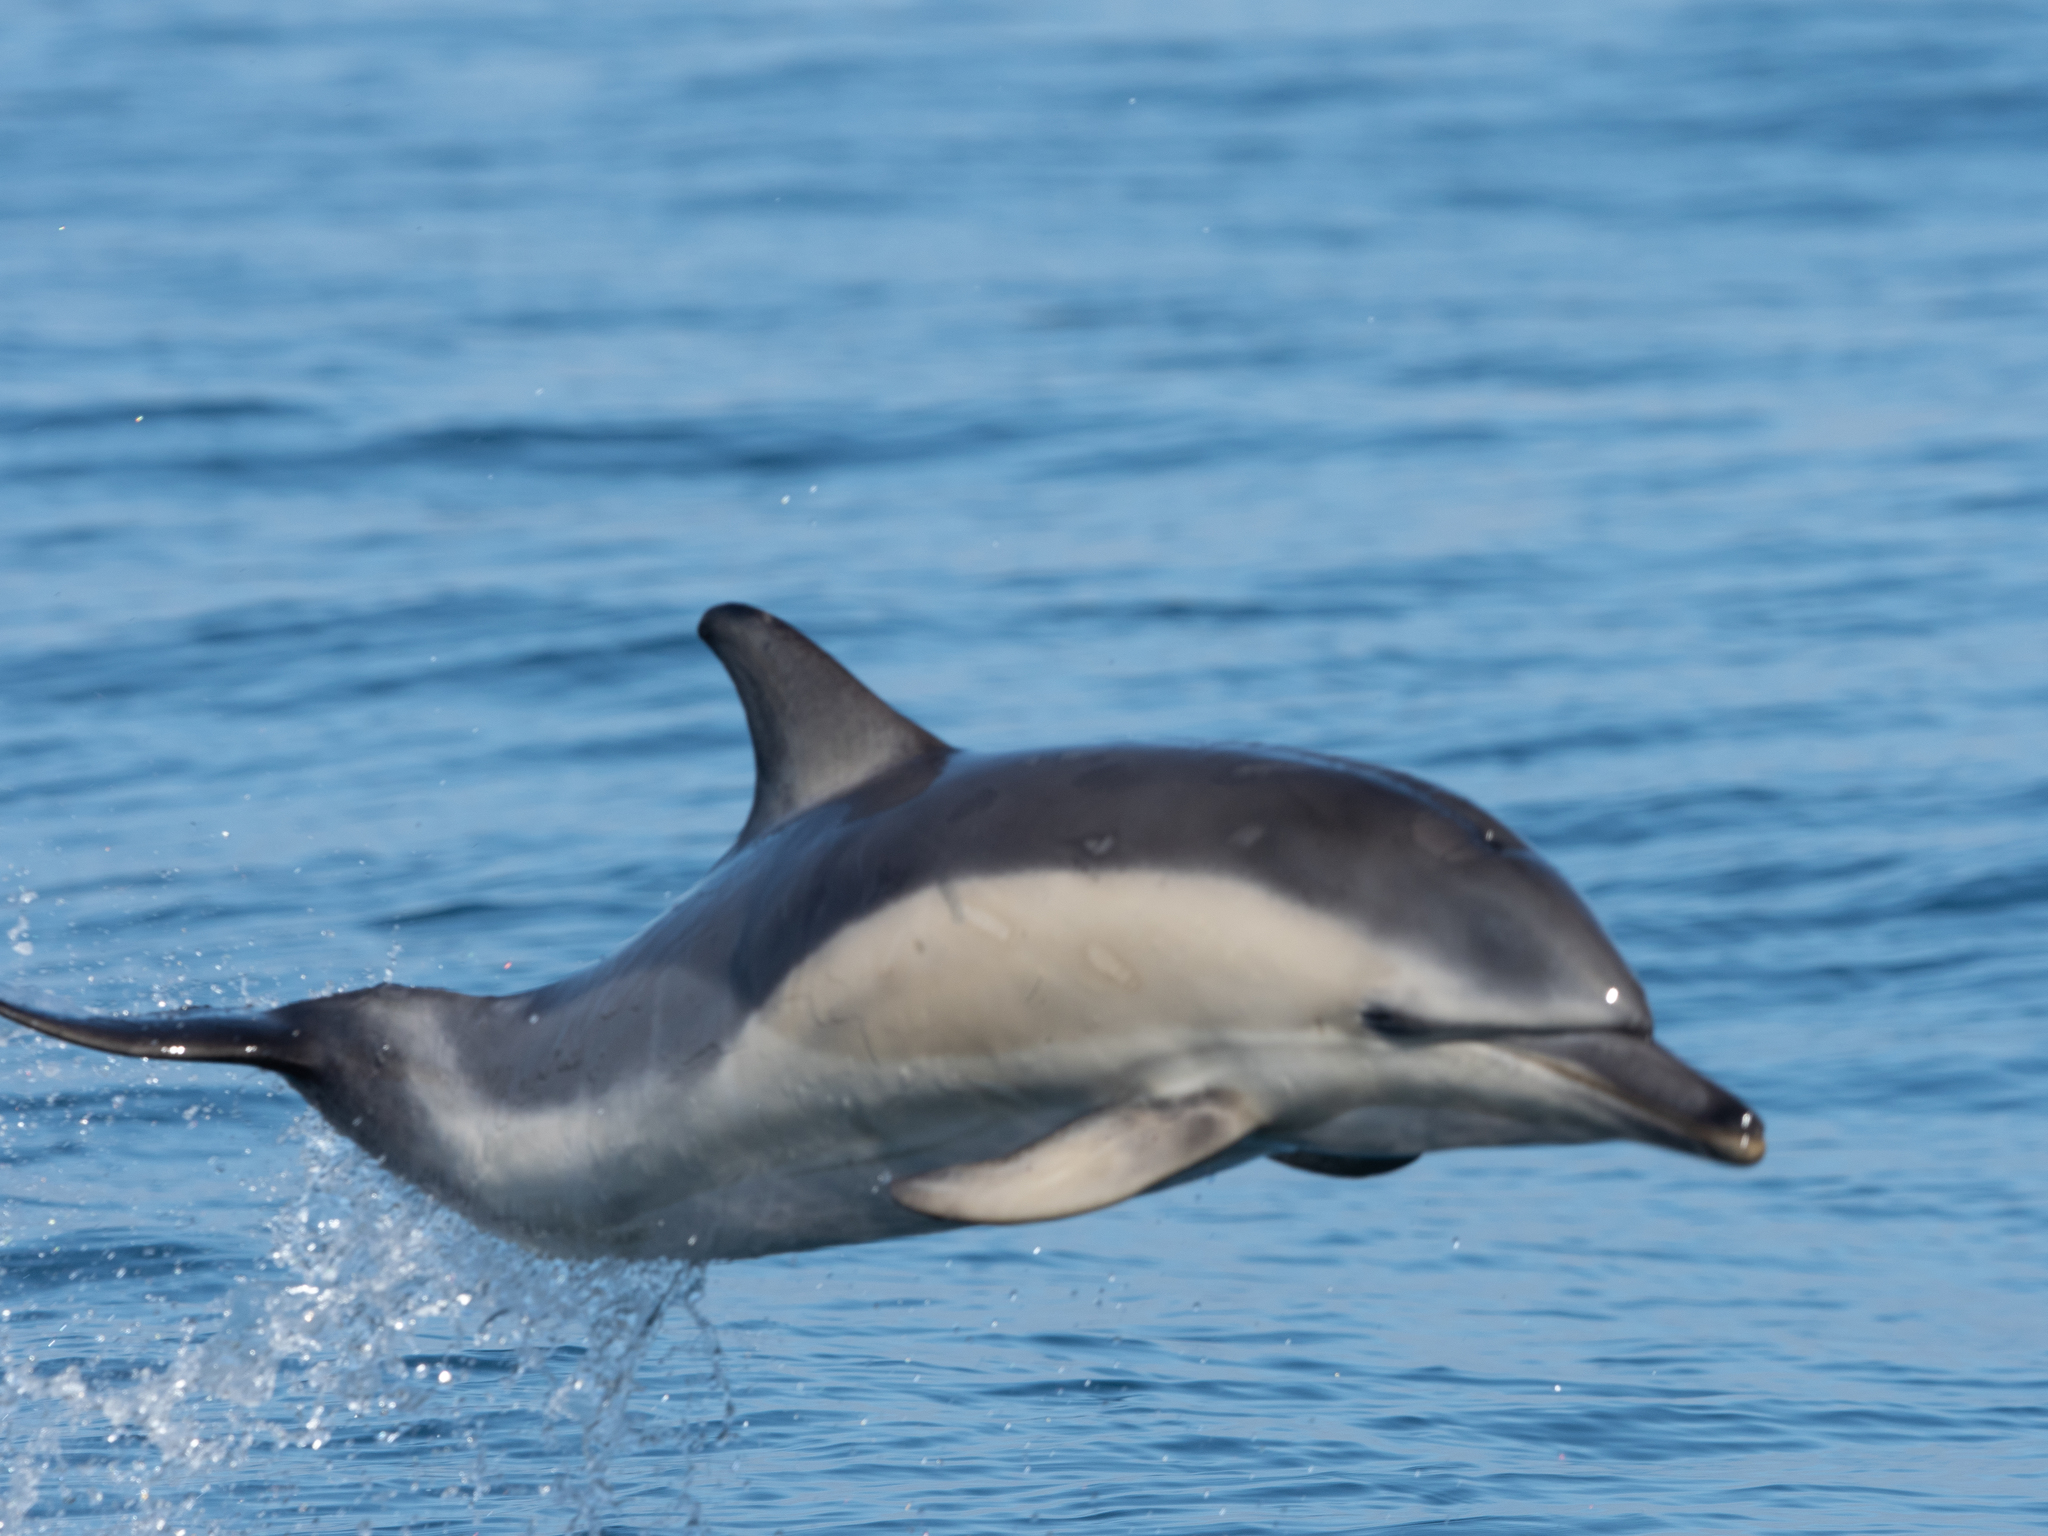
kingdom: Animalia
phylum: Chordata
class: Mammalia
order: Cetacea
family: Delphinidae
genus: Delphinus
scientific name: Delphinus delphis
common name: Common dolphin
